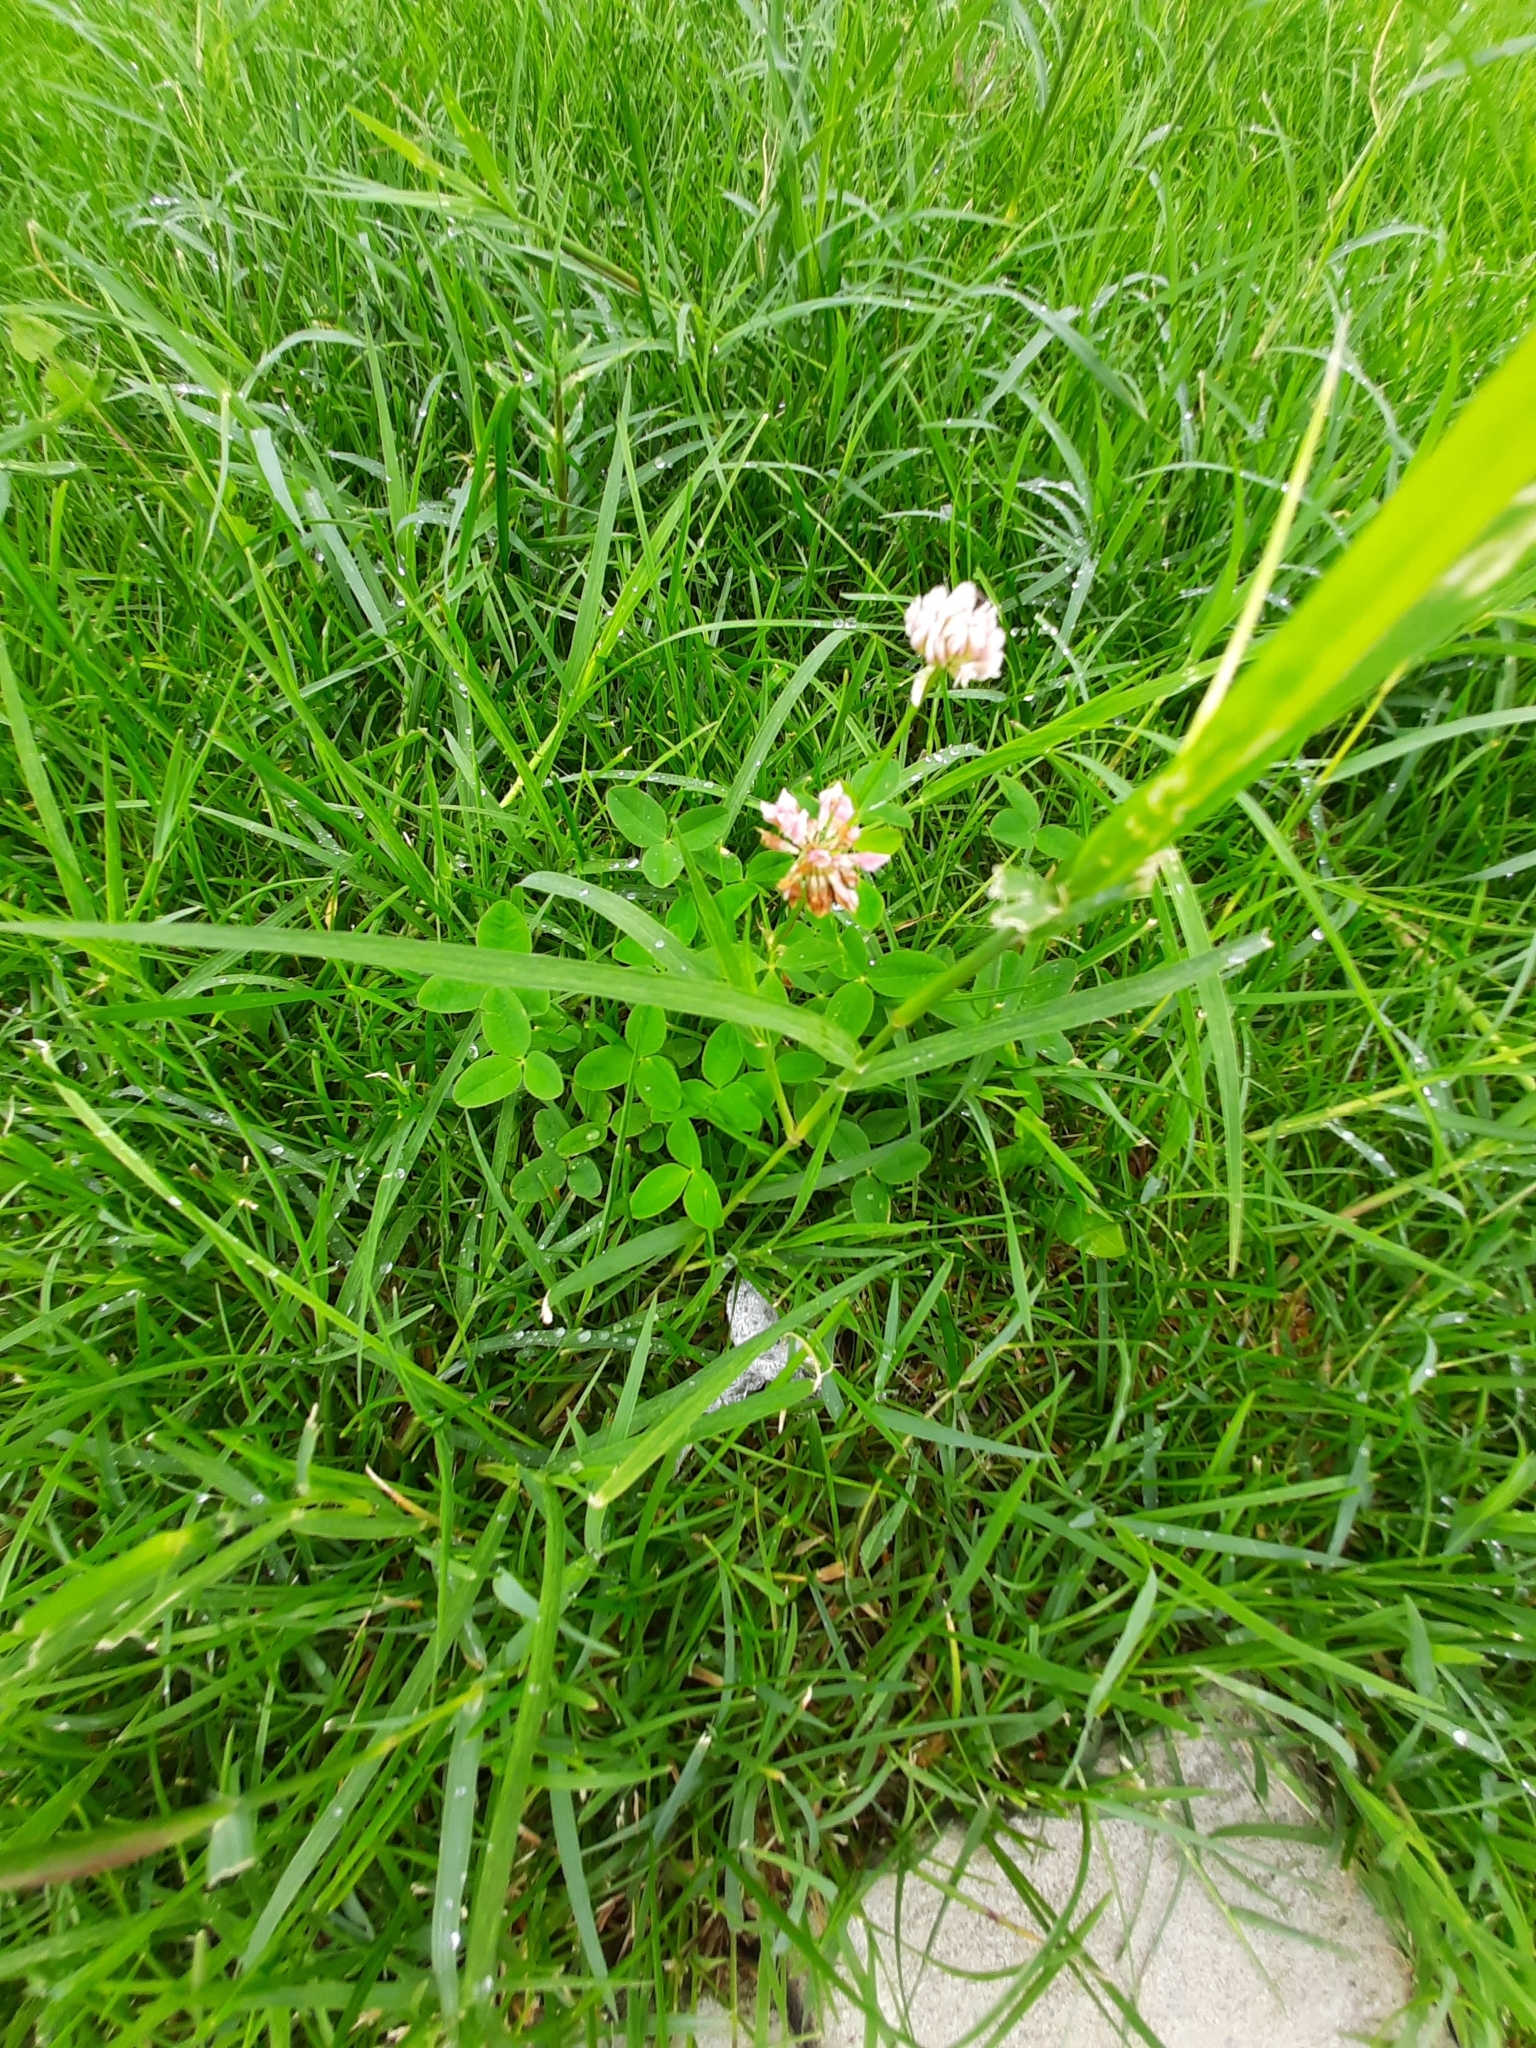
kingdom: Plantae
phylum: Tracheophyta
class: Magnoliopsida
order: Fabales
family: Fabaceae
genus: Trifolium
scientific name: Trifolium hybridum
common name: Alsike clover
